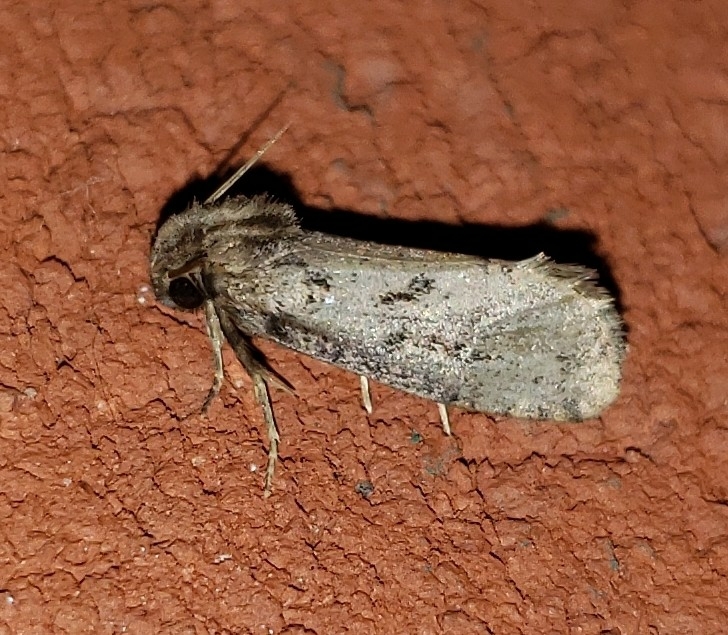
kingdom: Animalia
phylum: Arthropoda
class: Insecta
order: Lepidoptera
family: Tineidae
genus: Acrolophus
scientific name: Acrolophus popeanella
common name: Clemens' grass tubeworm moth
